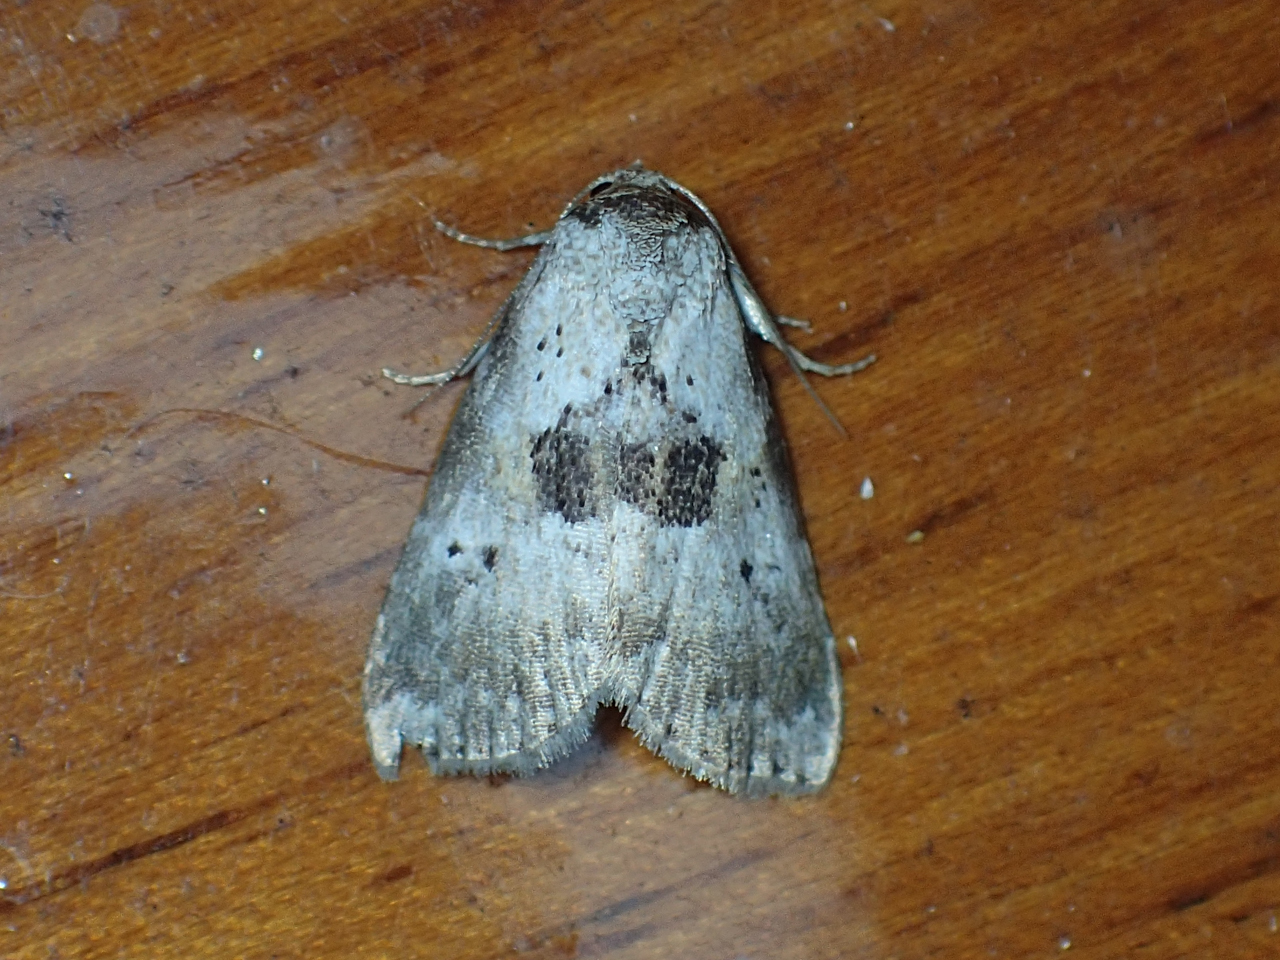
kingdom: Animalia
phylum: Arthropoda
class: Insecta
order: Lepidoptera
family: Erebidae
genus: Hyperstrotia
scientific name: Hyperstrotia secta
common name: Black-patched graylet
